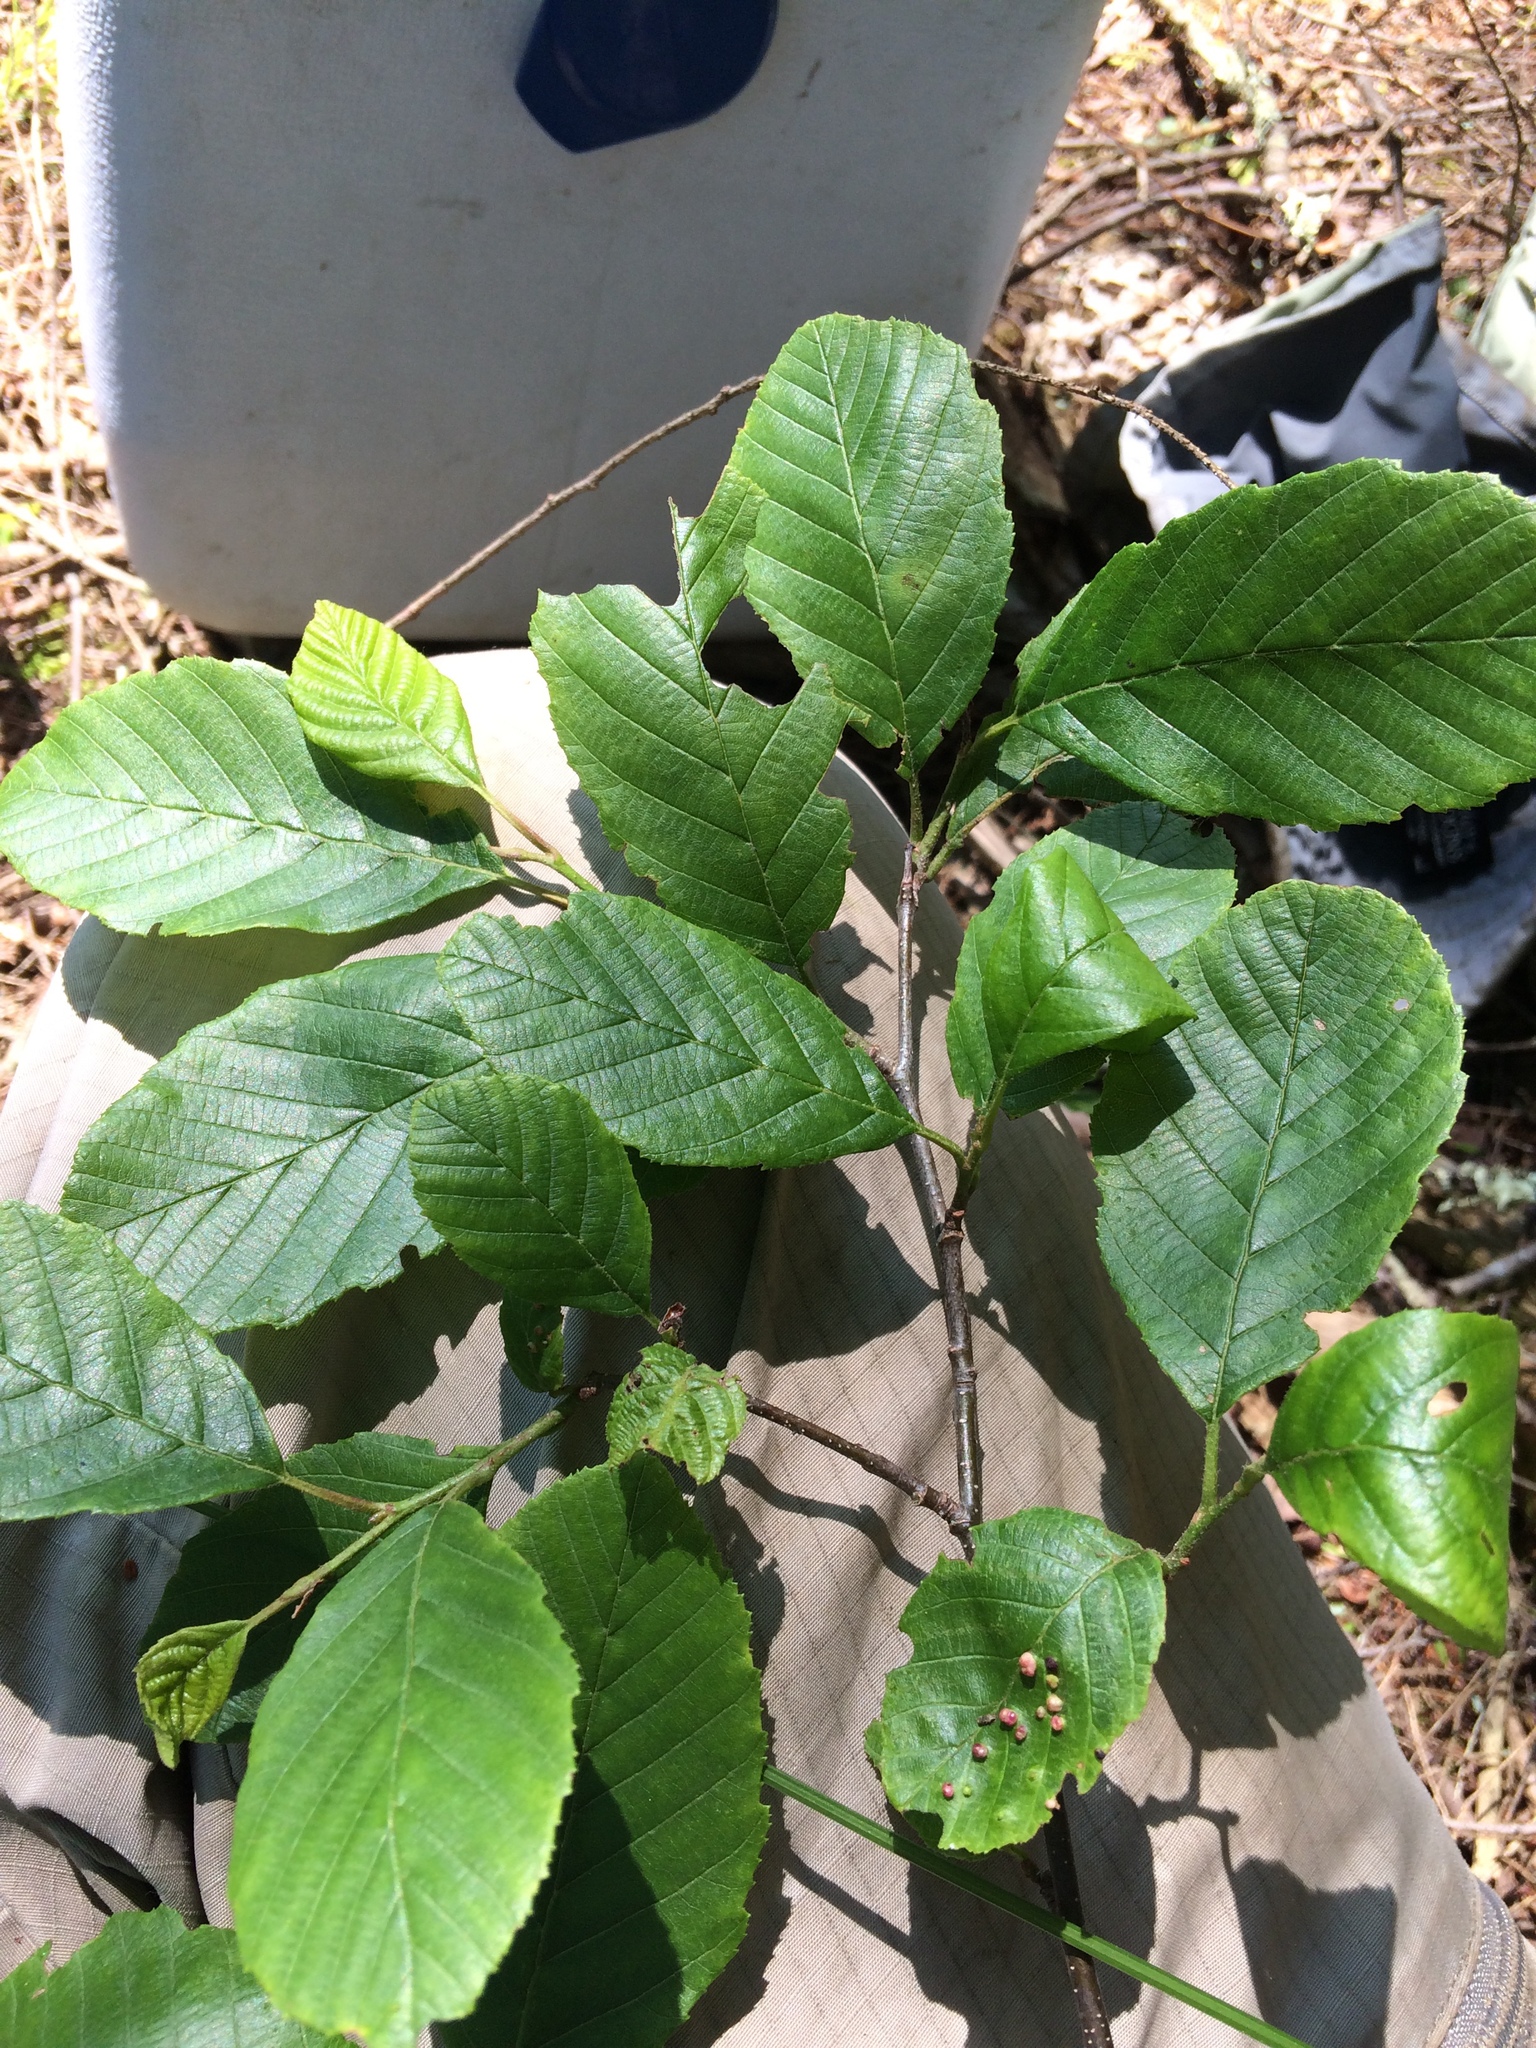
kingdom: Plantae
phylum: Tracheophyta
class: Magnoliopsida
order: Fagales
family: Betulaceae
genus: Alnus
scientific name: Alnus incana
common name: Grey alder
